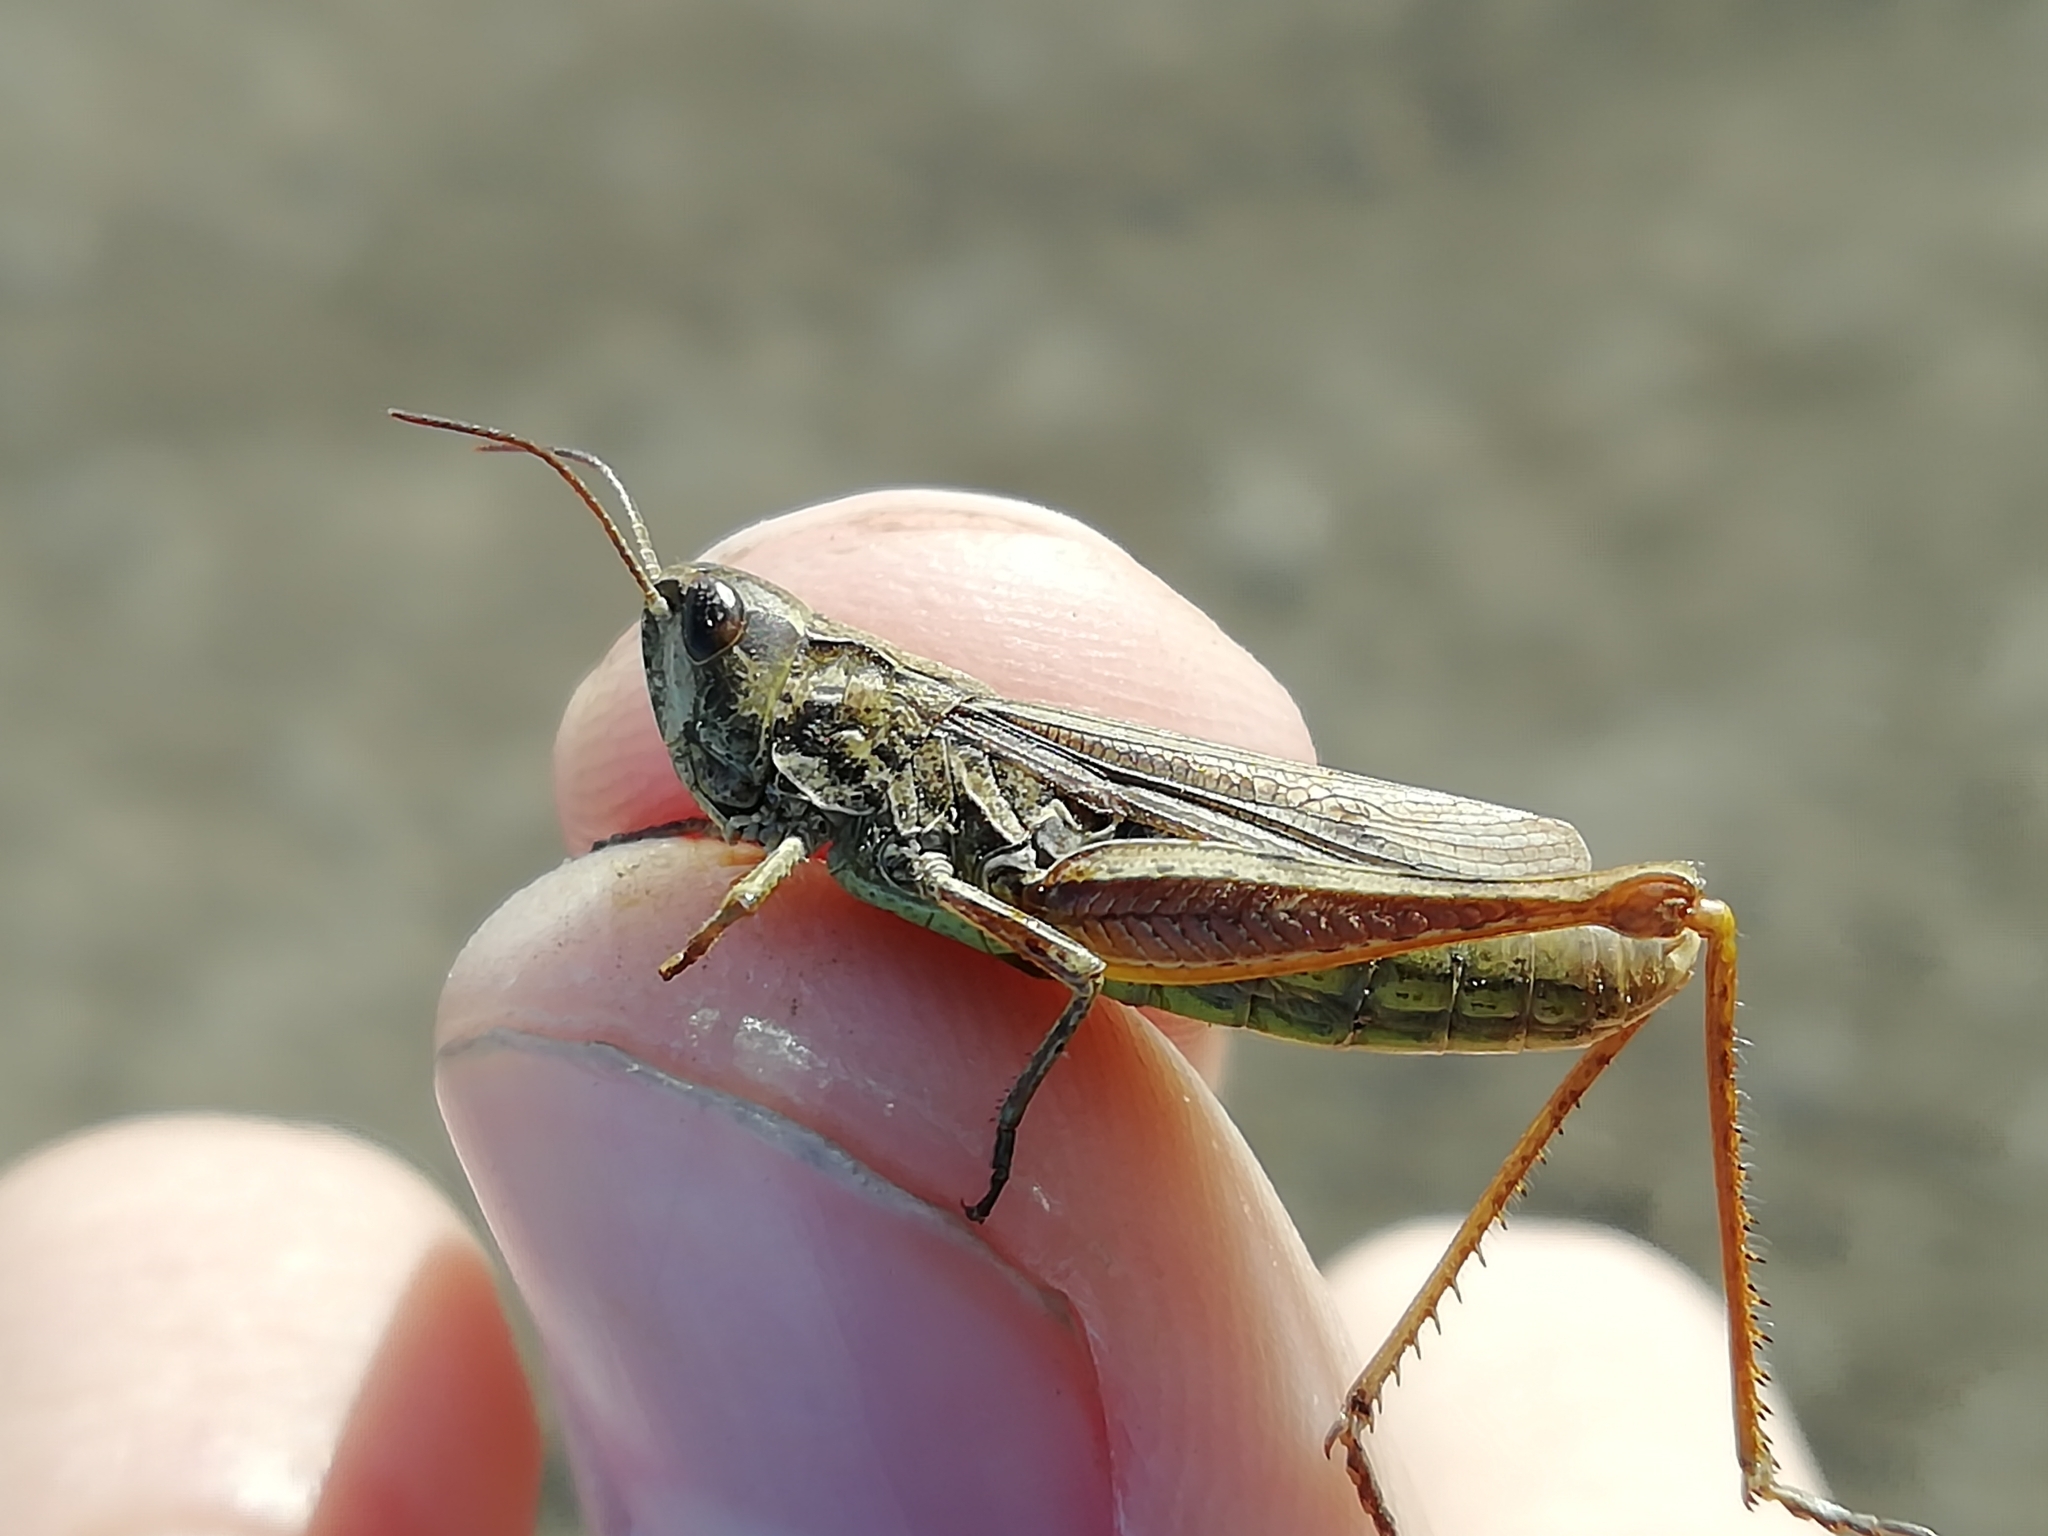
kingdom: Animalia
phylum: Arthropoda
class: Insecta
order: Orthoptera
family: Acrididae
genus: Chorthippus
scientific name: Chorthippus apricarius
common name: Upland field grasshopper
